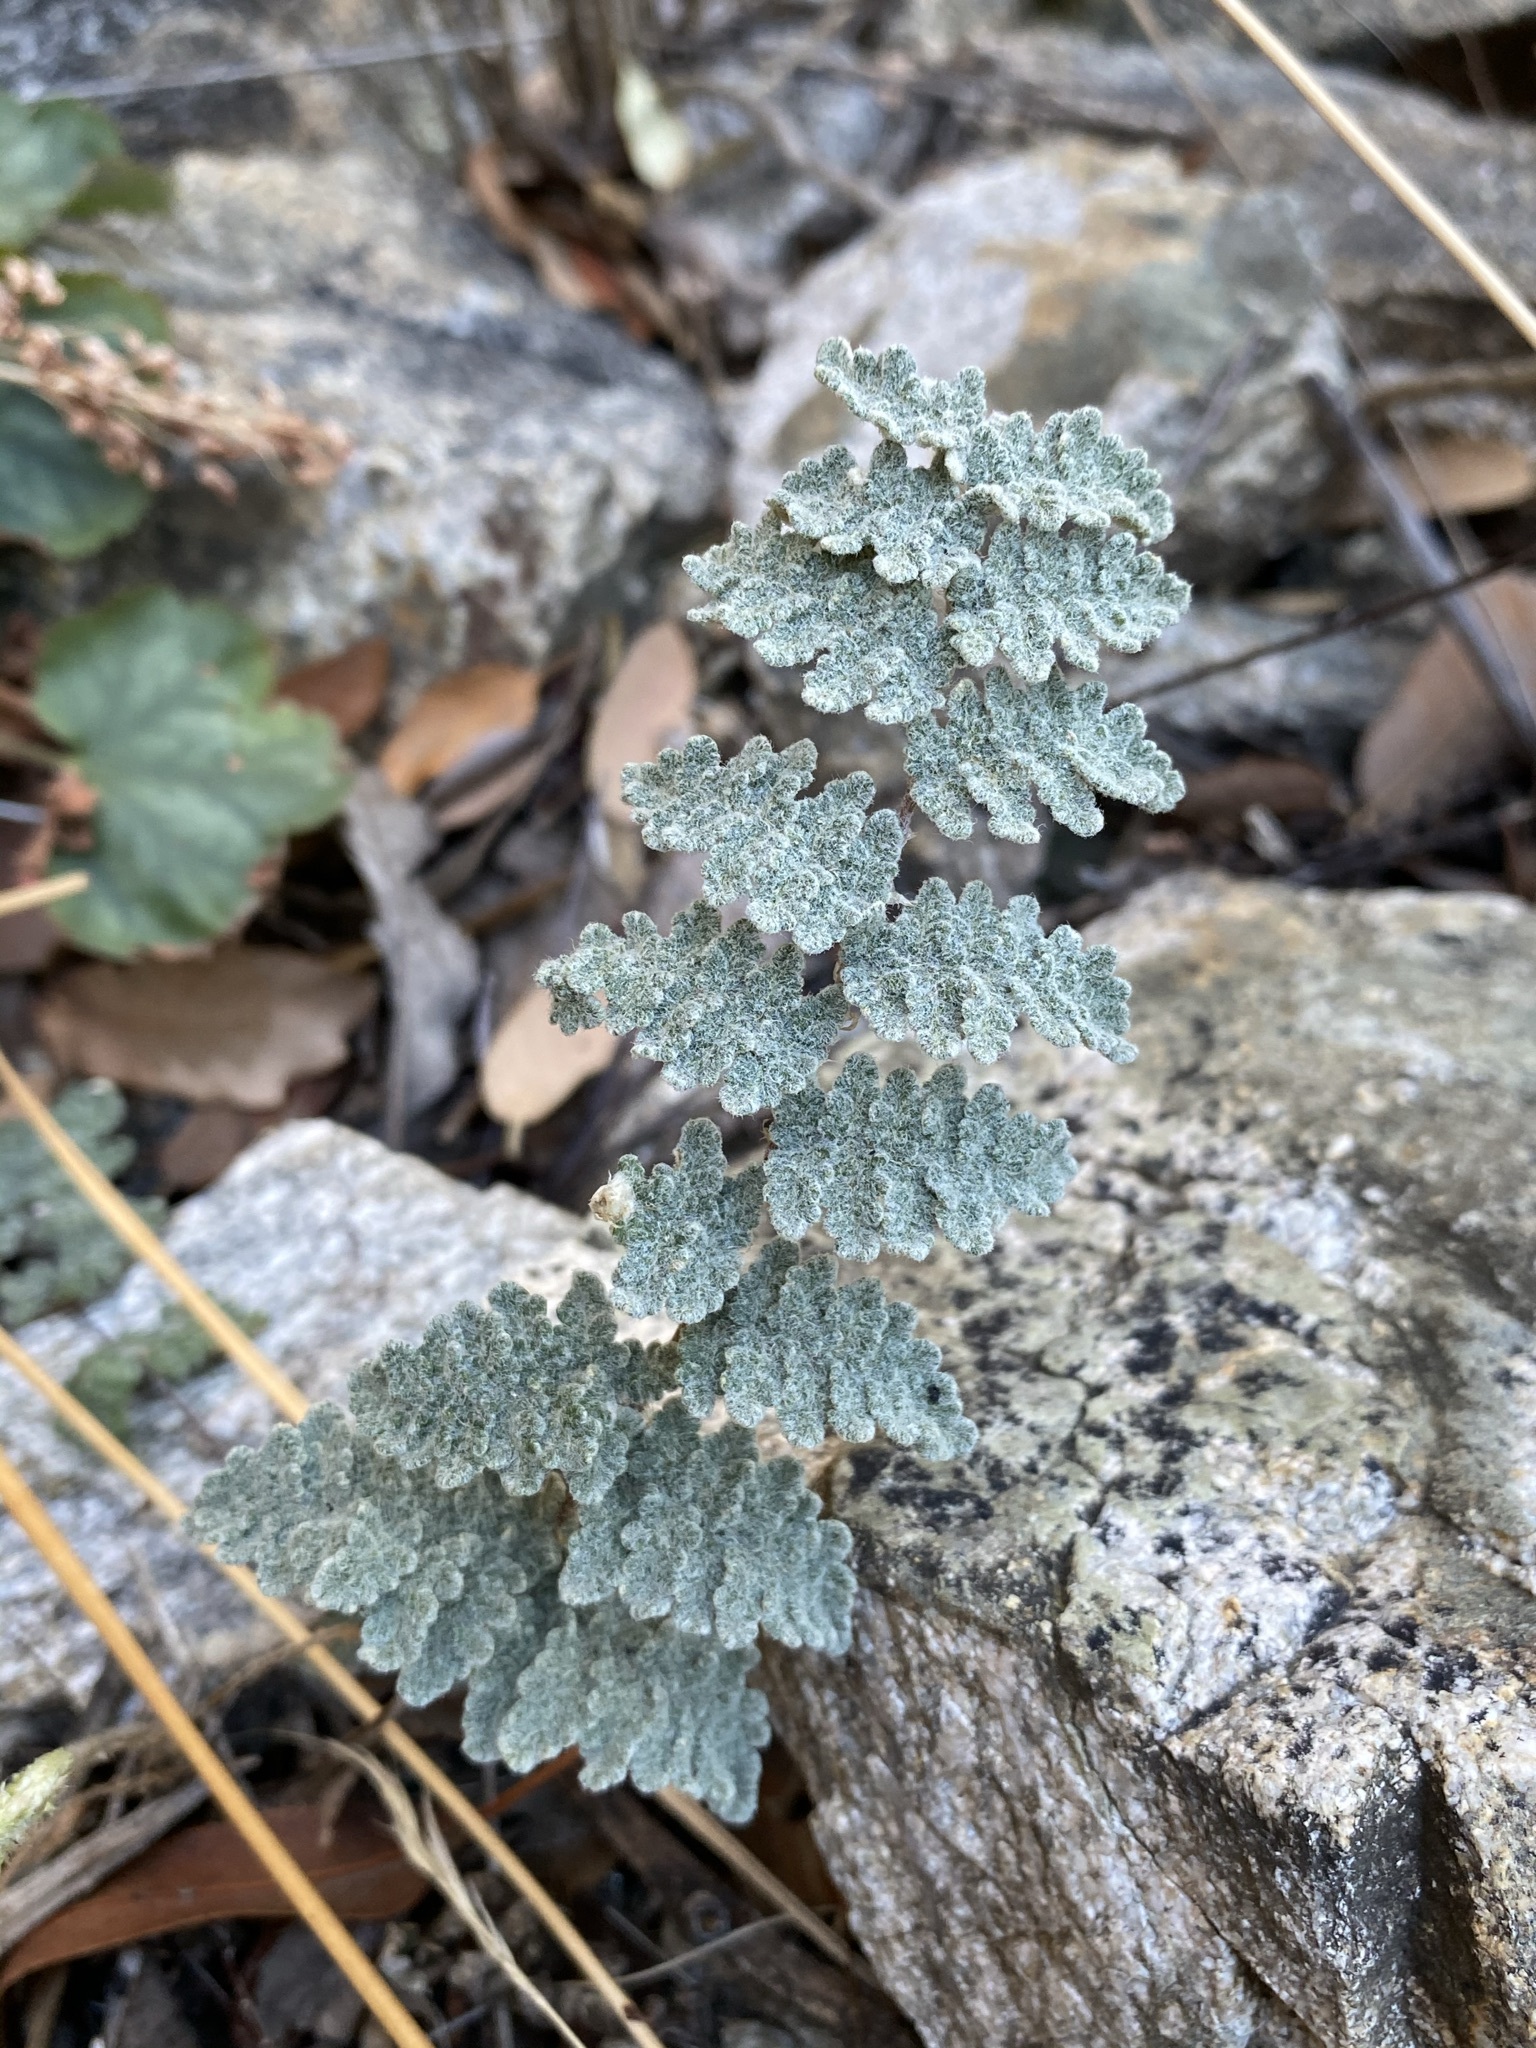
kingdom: Plantae
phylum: Tracheophyta
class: Polypodiopsida
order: Polypodiales
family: Pteridaceae
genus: Myriopteris
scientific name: Myriopteris rufa
